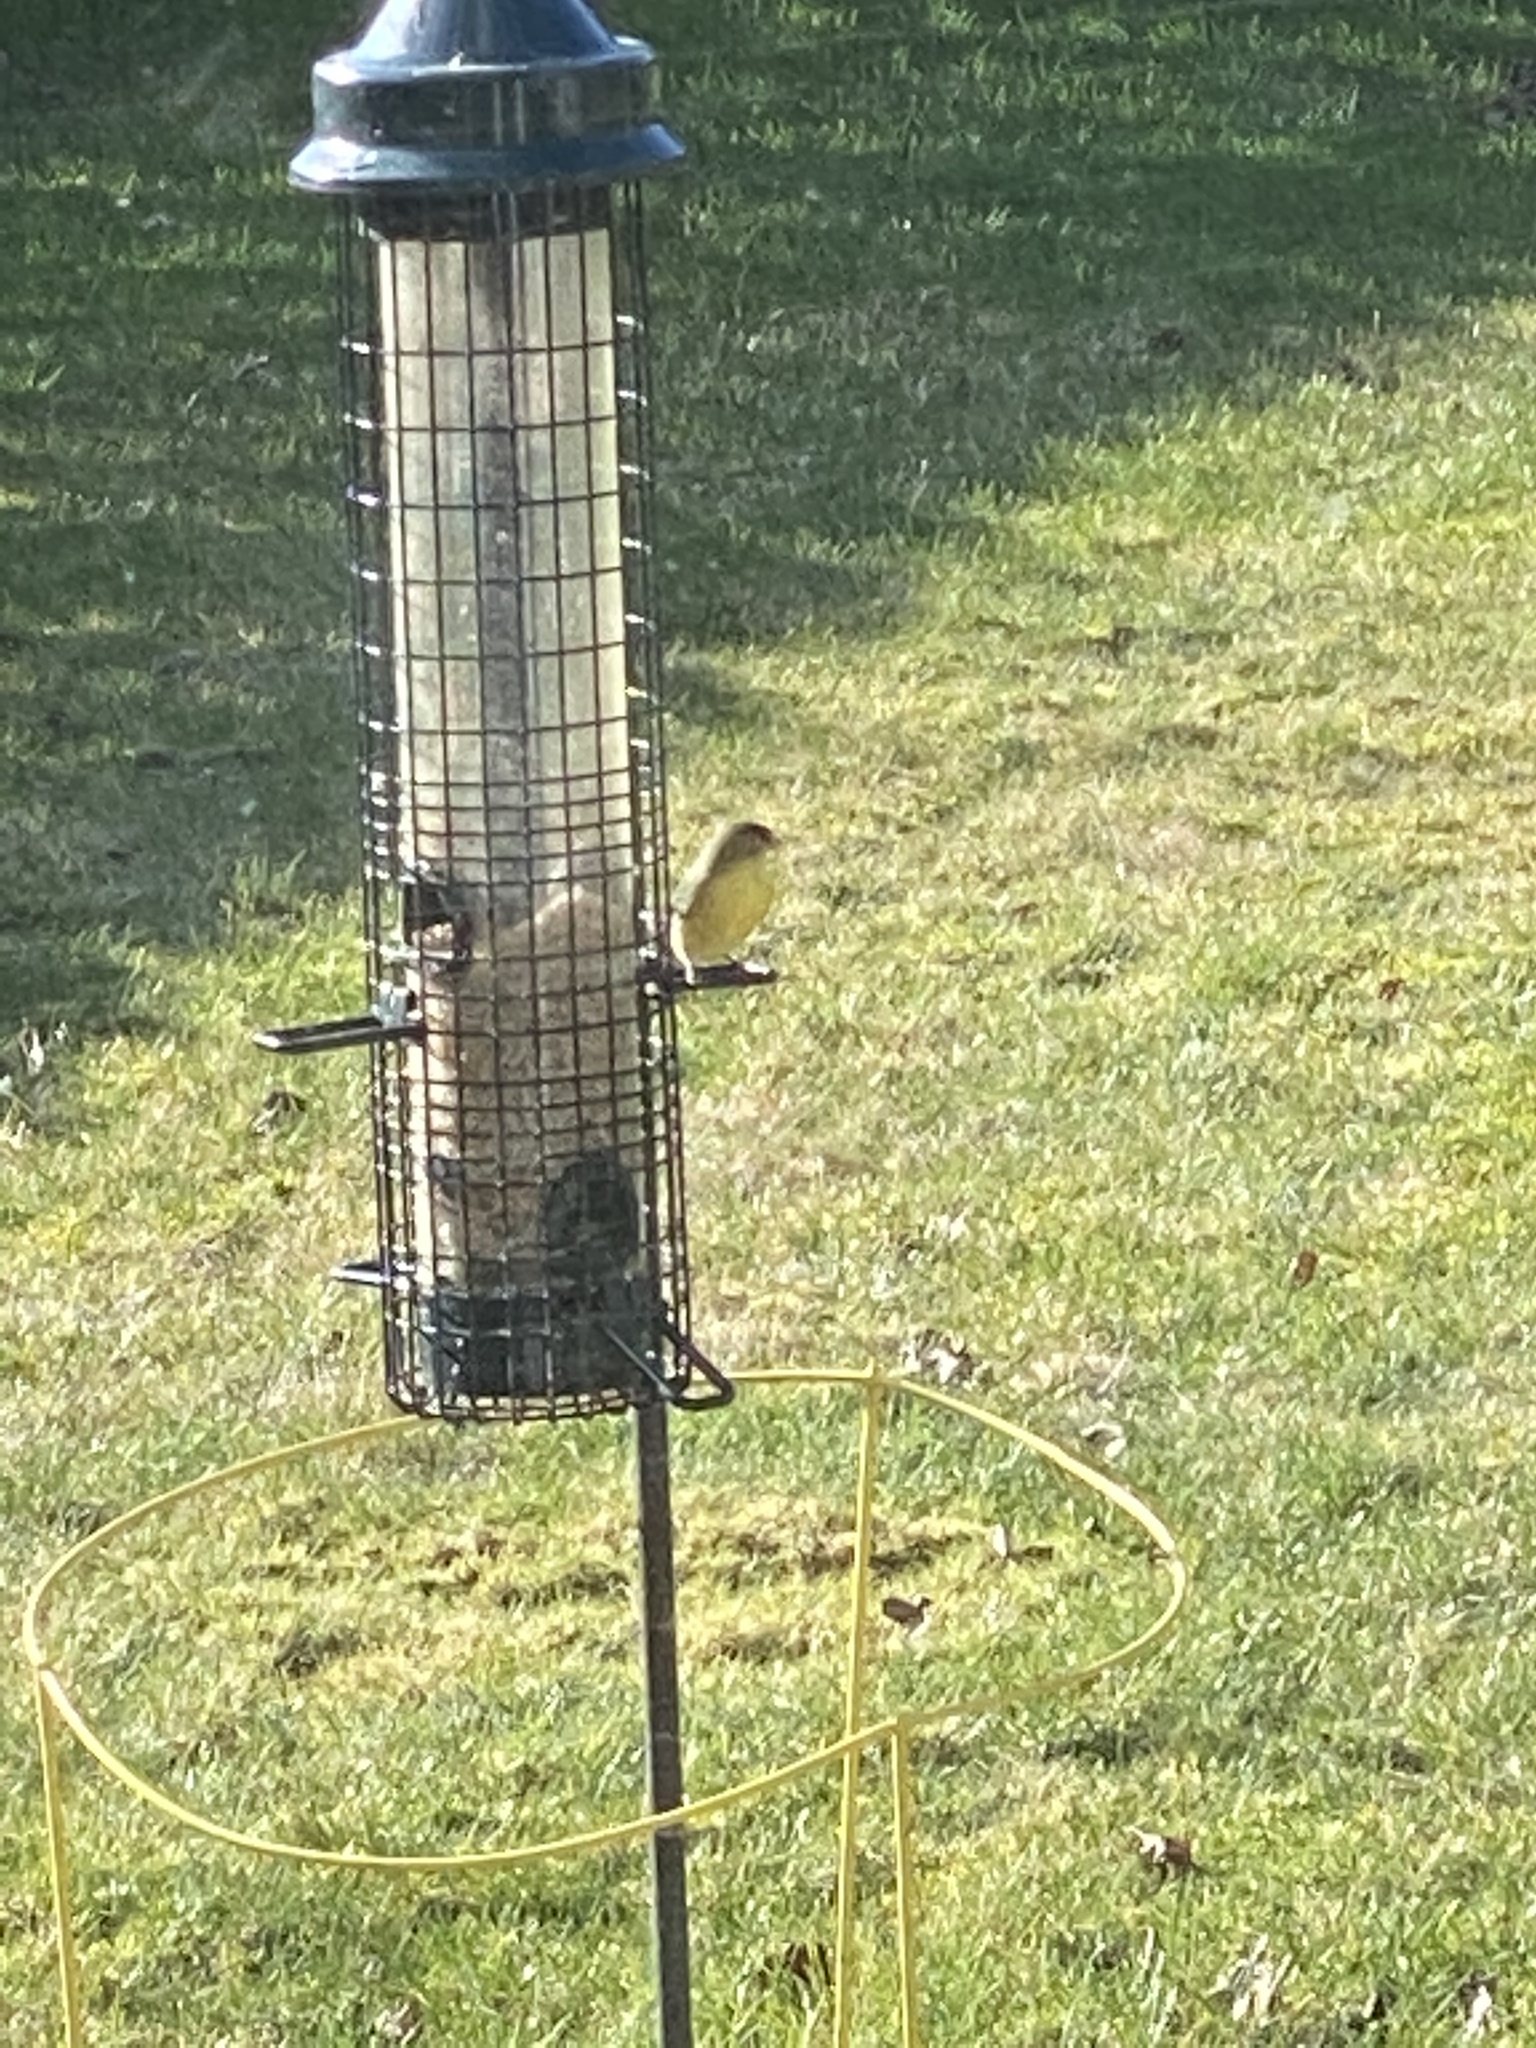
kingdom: Animalia
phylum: Chordata
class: Aves
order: Passeriformes
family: Fringillidae
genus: Spinus
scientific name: Spinus psaltria
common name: Lesser goldfinch
